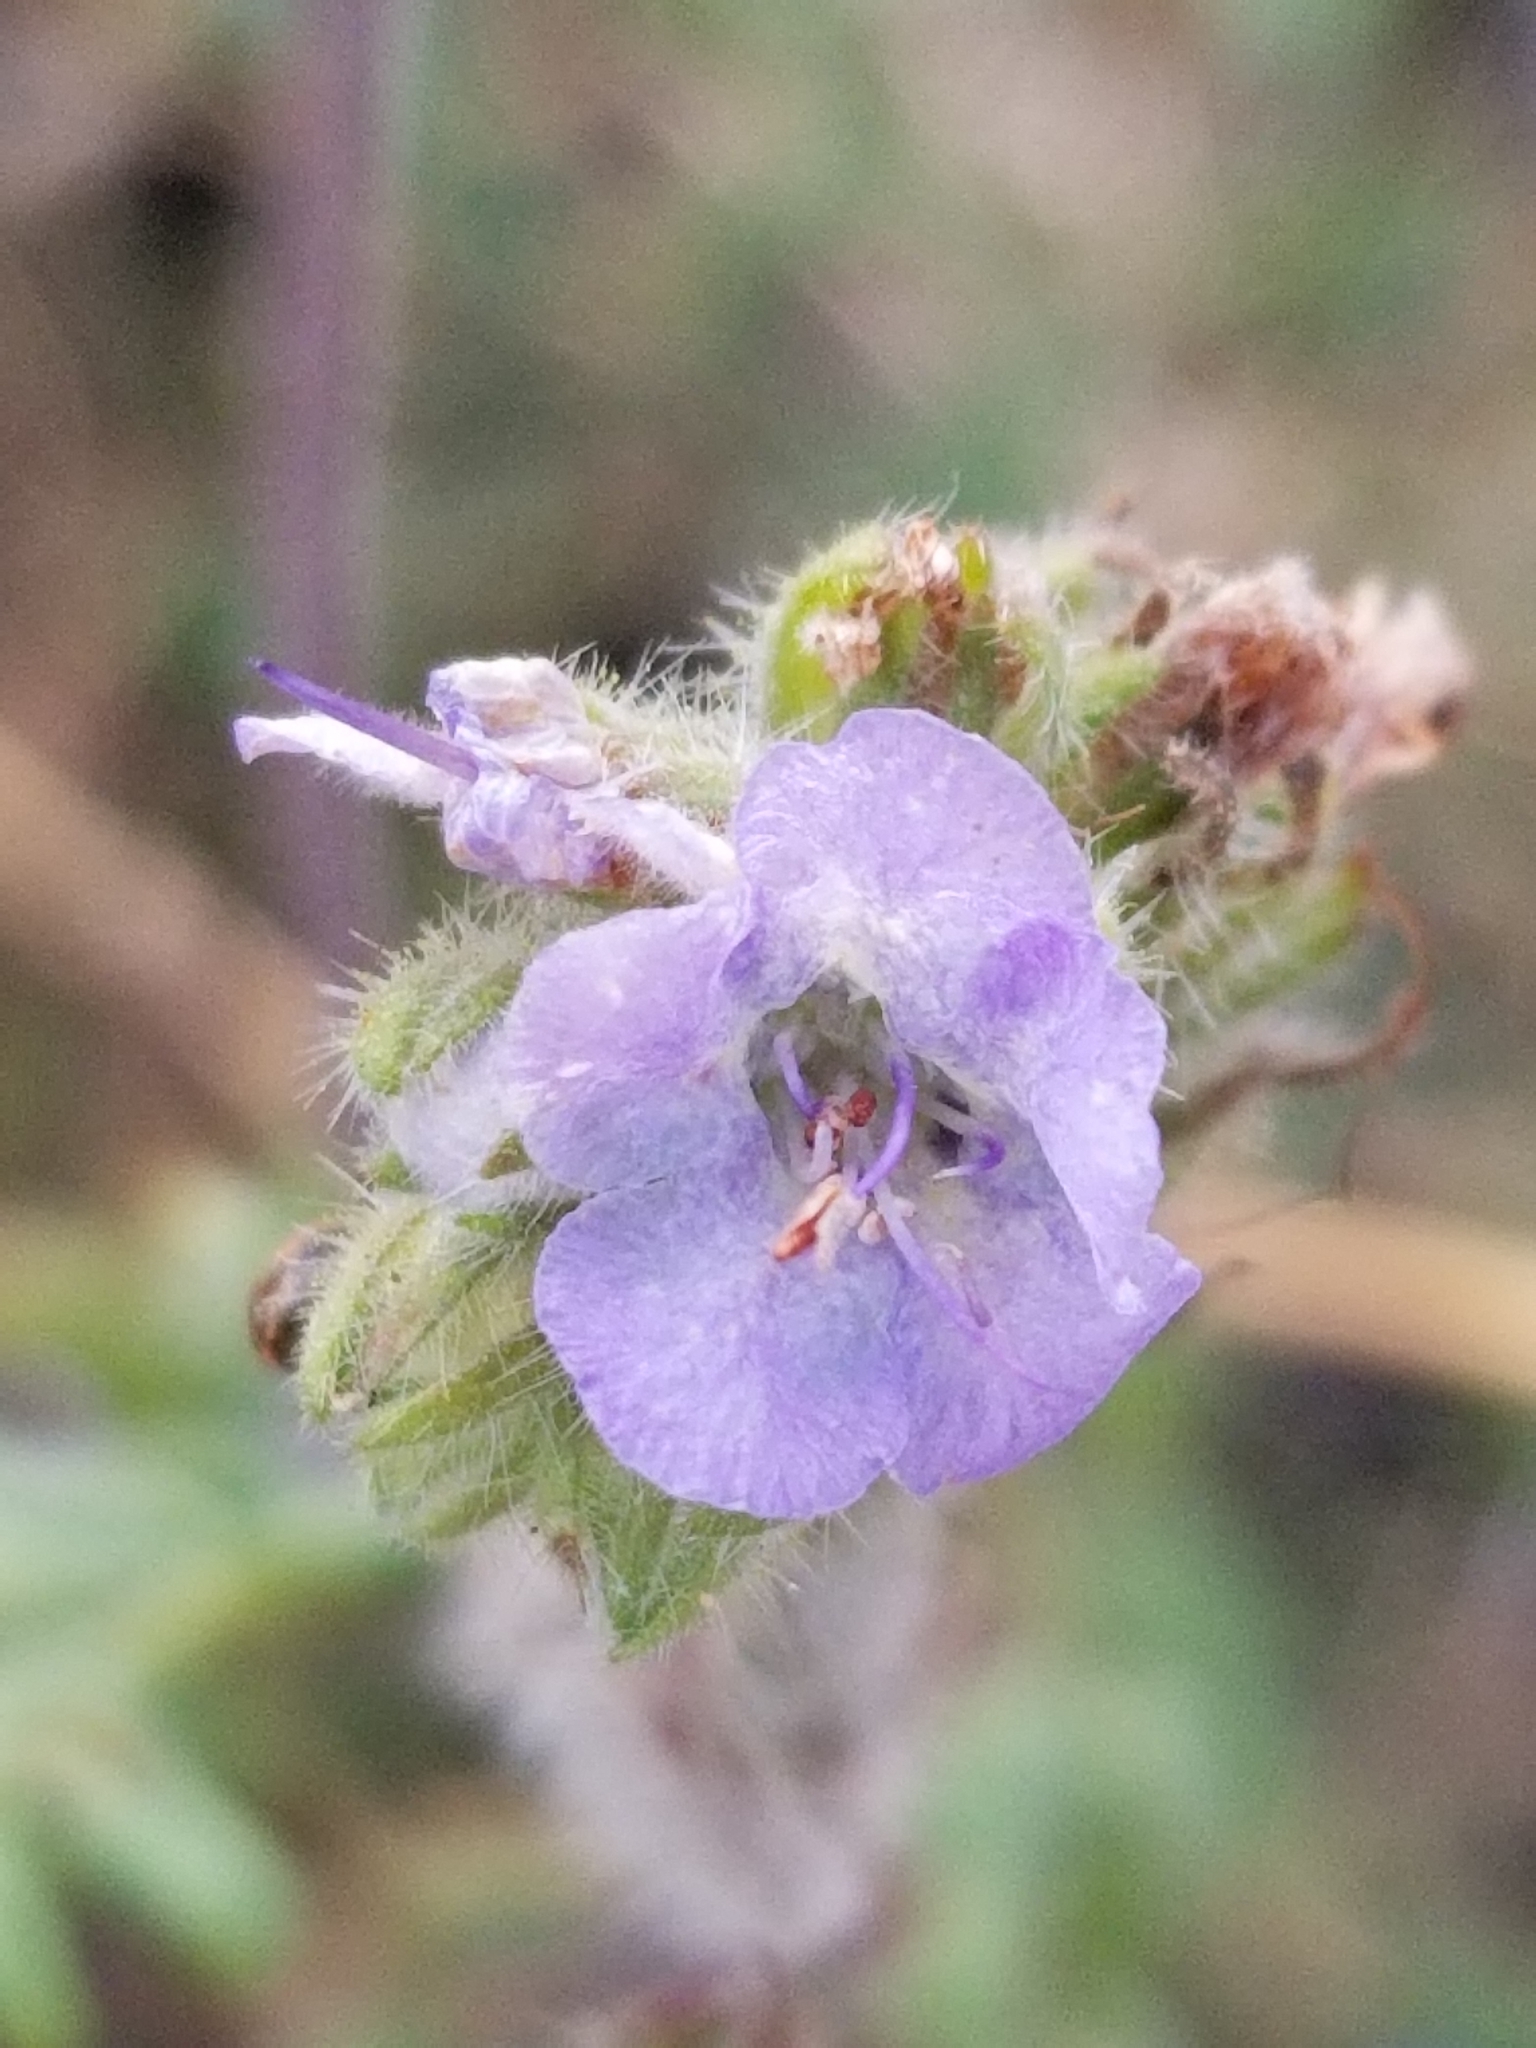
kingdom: Plantae
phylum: Tracheophyta
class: Magnoliopsida
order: Boraginales
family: Hydrophyllaceae
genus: Phacelia
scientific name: Phacelia distans
